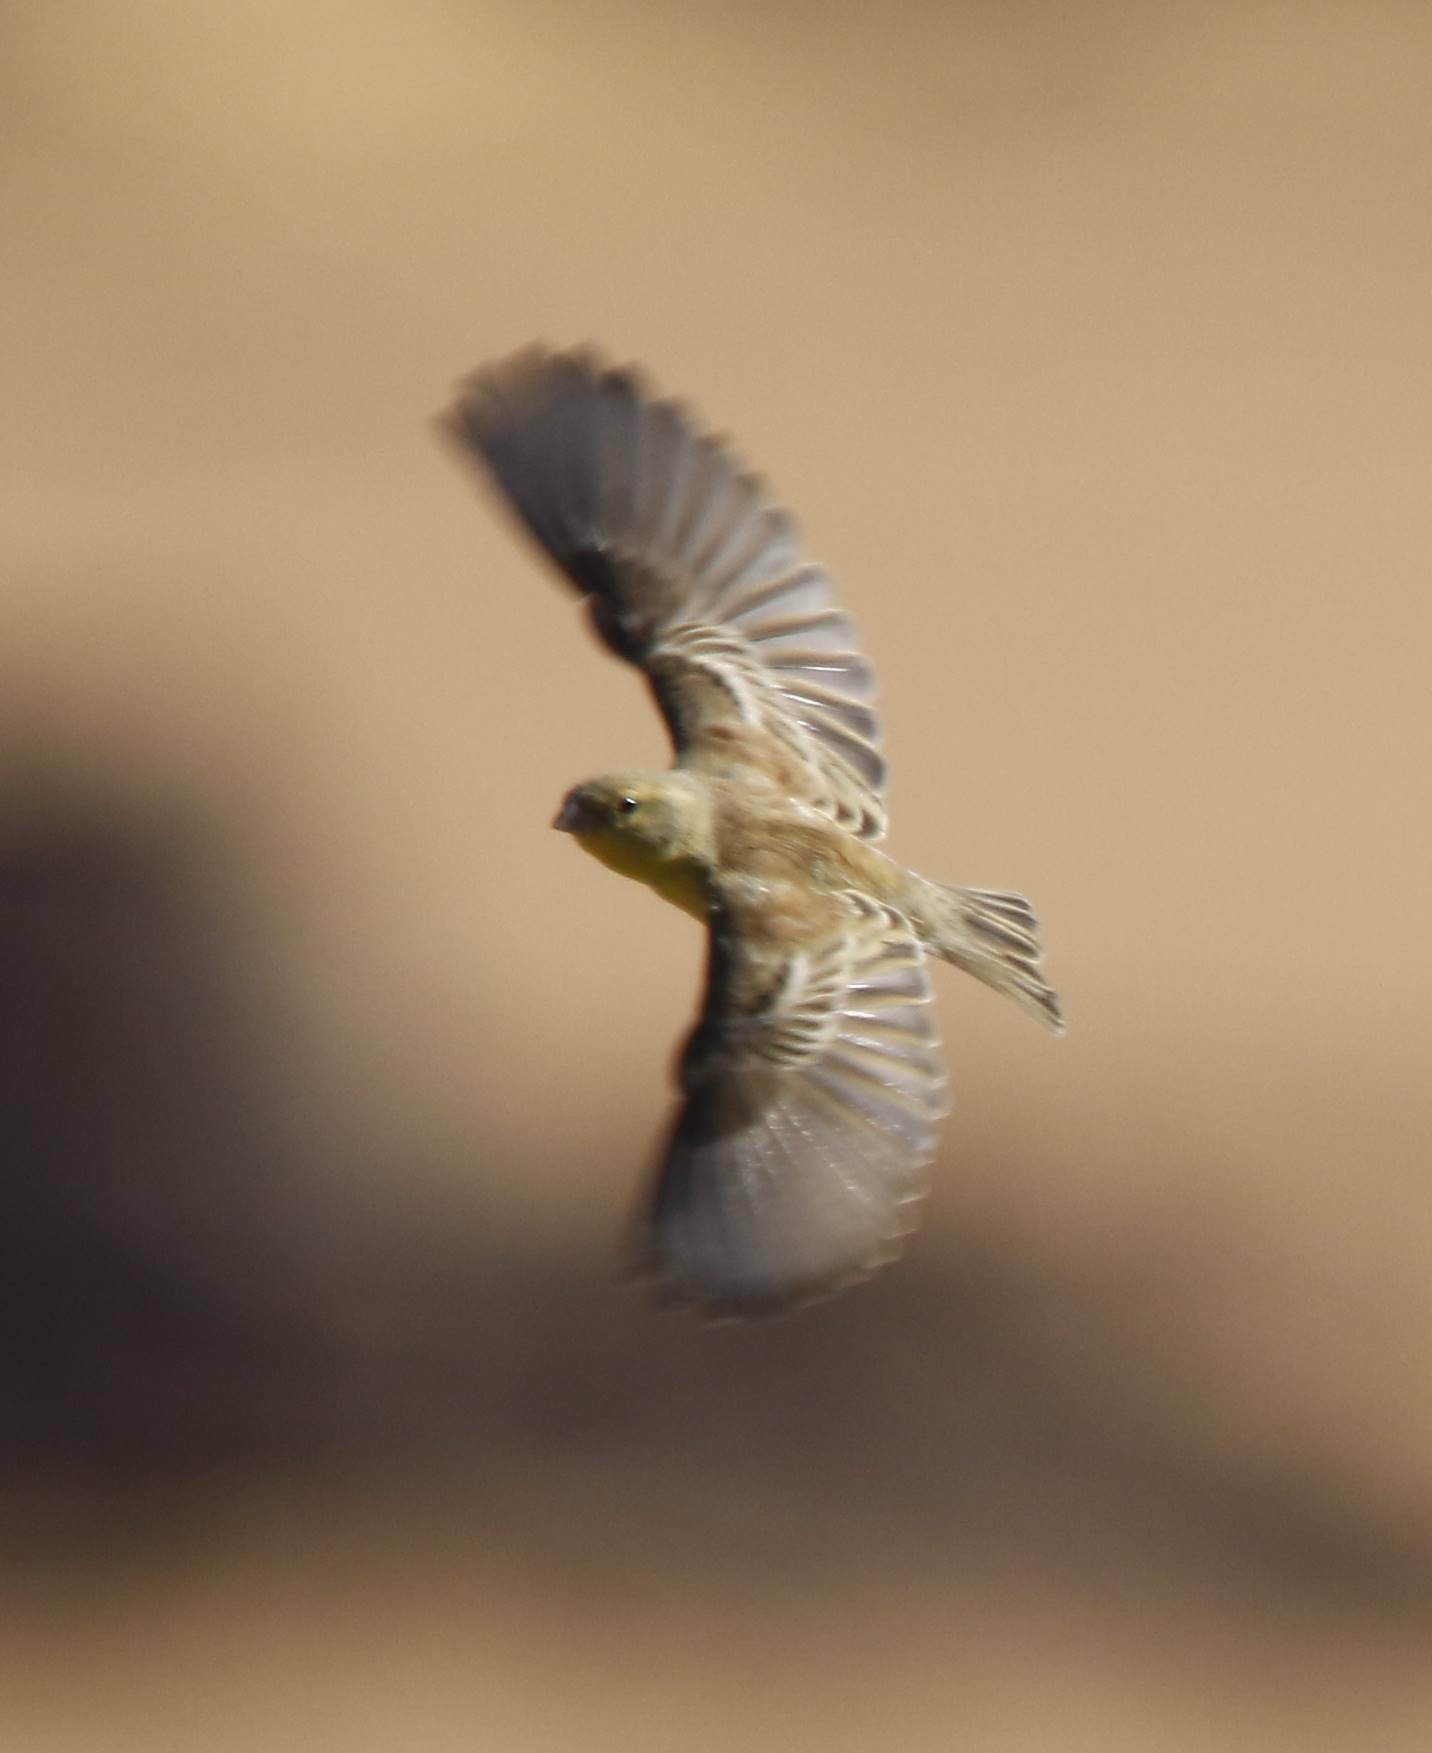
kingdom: Animalia
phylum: Chordata
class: Aves
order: Passeriformes
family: Passeridae
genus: Passer
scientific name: Passer luteus
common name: Sudan golden sparrow
